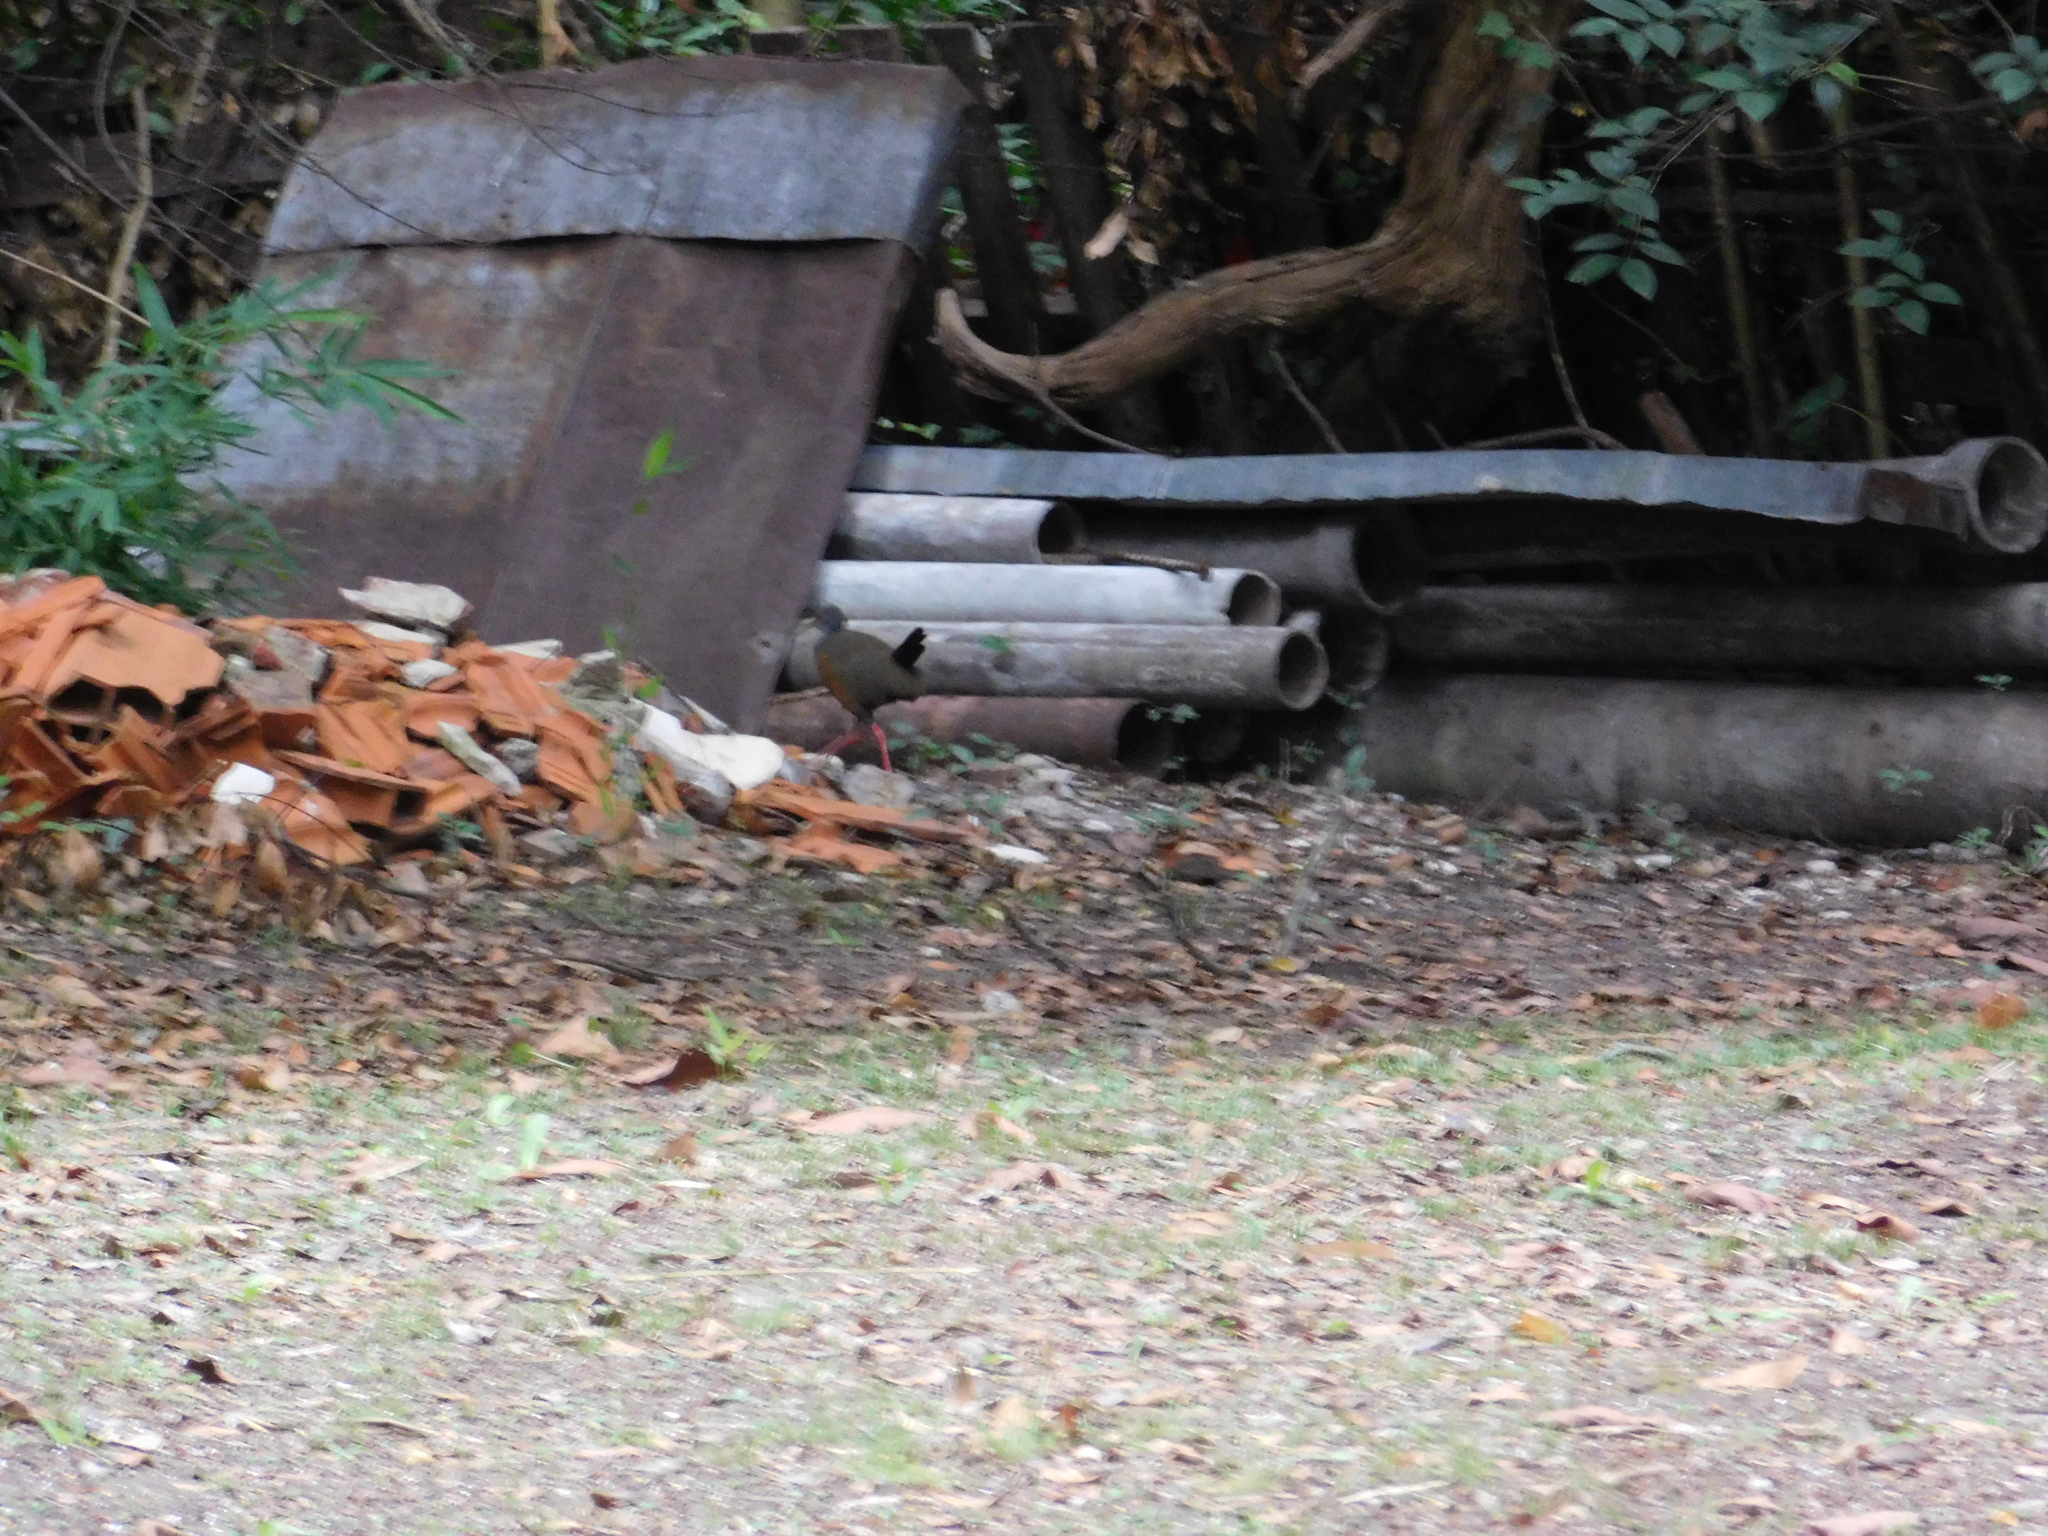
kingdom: Animalia
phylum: Chordata
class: Aves
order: Gruiformes
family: Rallidae
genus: Aramides
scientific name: Aramides cajanea
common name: Gray-necked wood-rail
